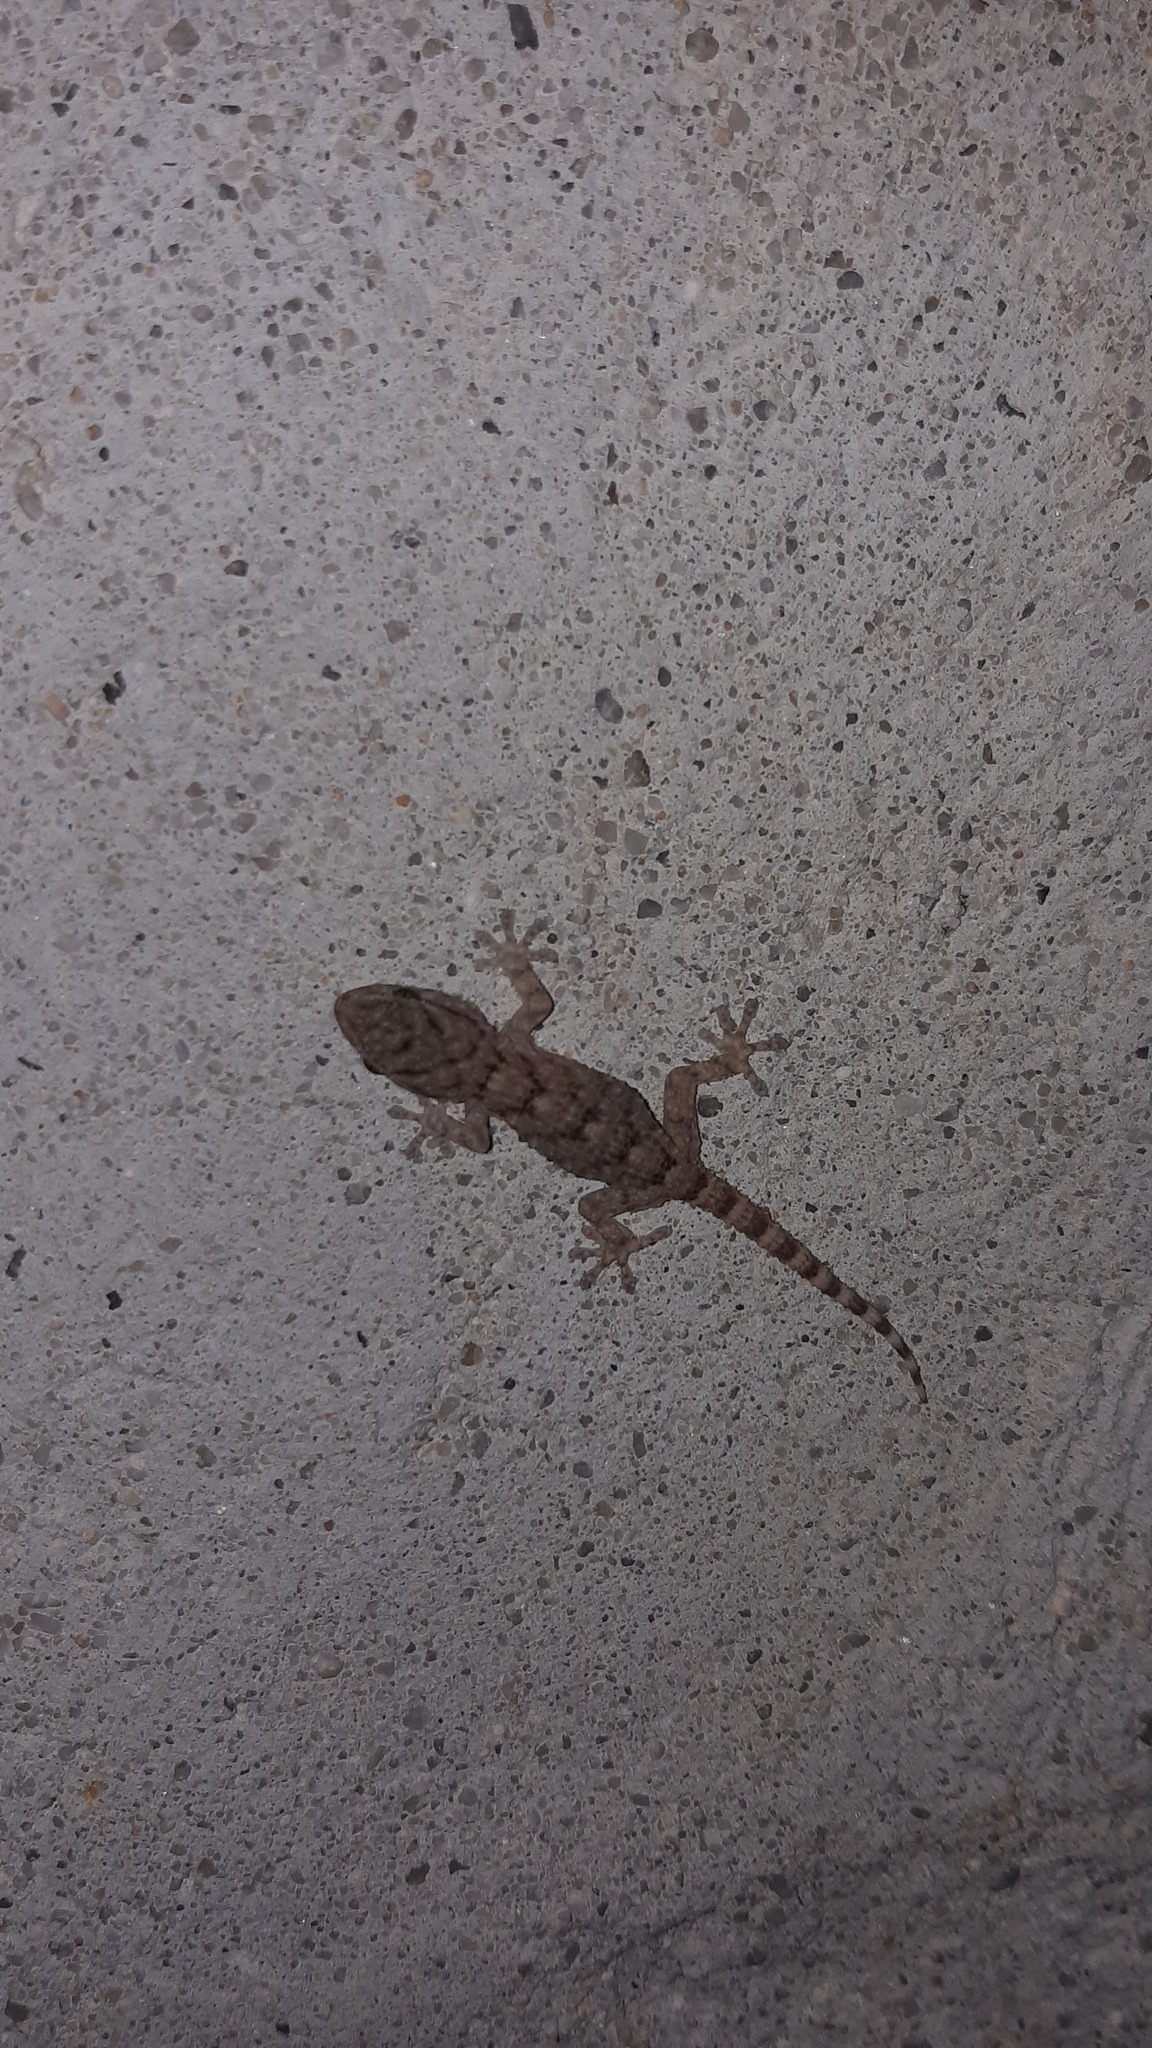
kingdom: Animalia
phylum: Chordata
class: Squamata
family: Phyllodactylidae
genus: Tarentola
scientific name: Tarentola mauritanica
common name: Moorish gecko
